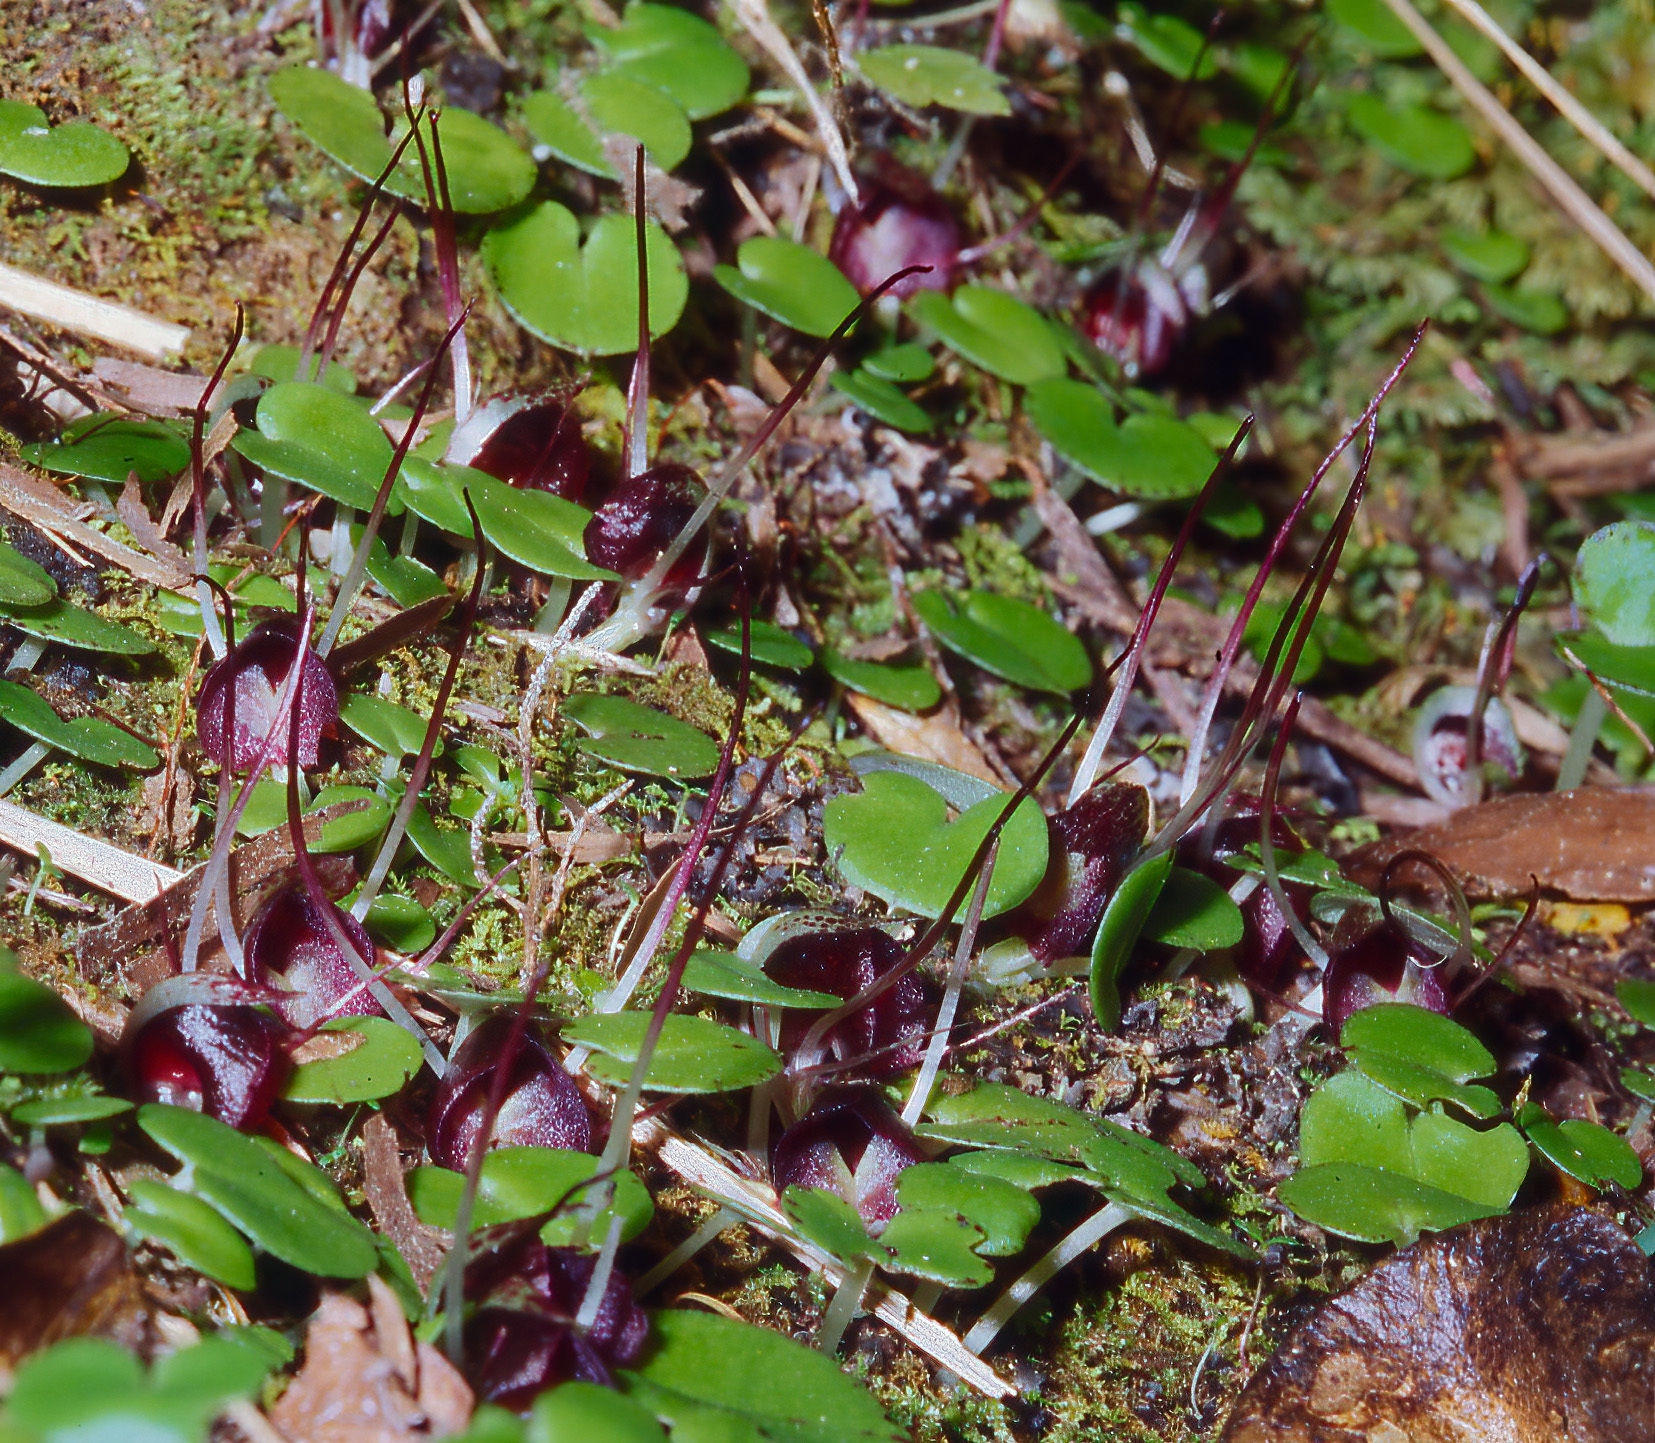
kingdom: Plantae
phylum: Tracheophyta
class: Liliopsida
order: Asparagales
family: Orchidaceae
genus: Corybas
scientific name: Corybas macranthus
